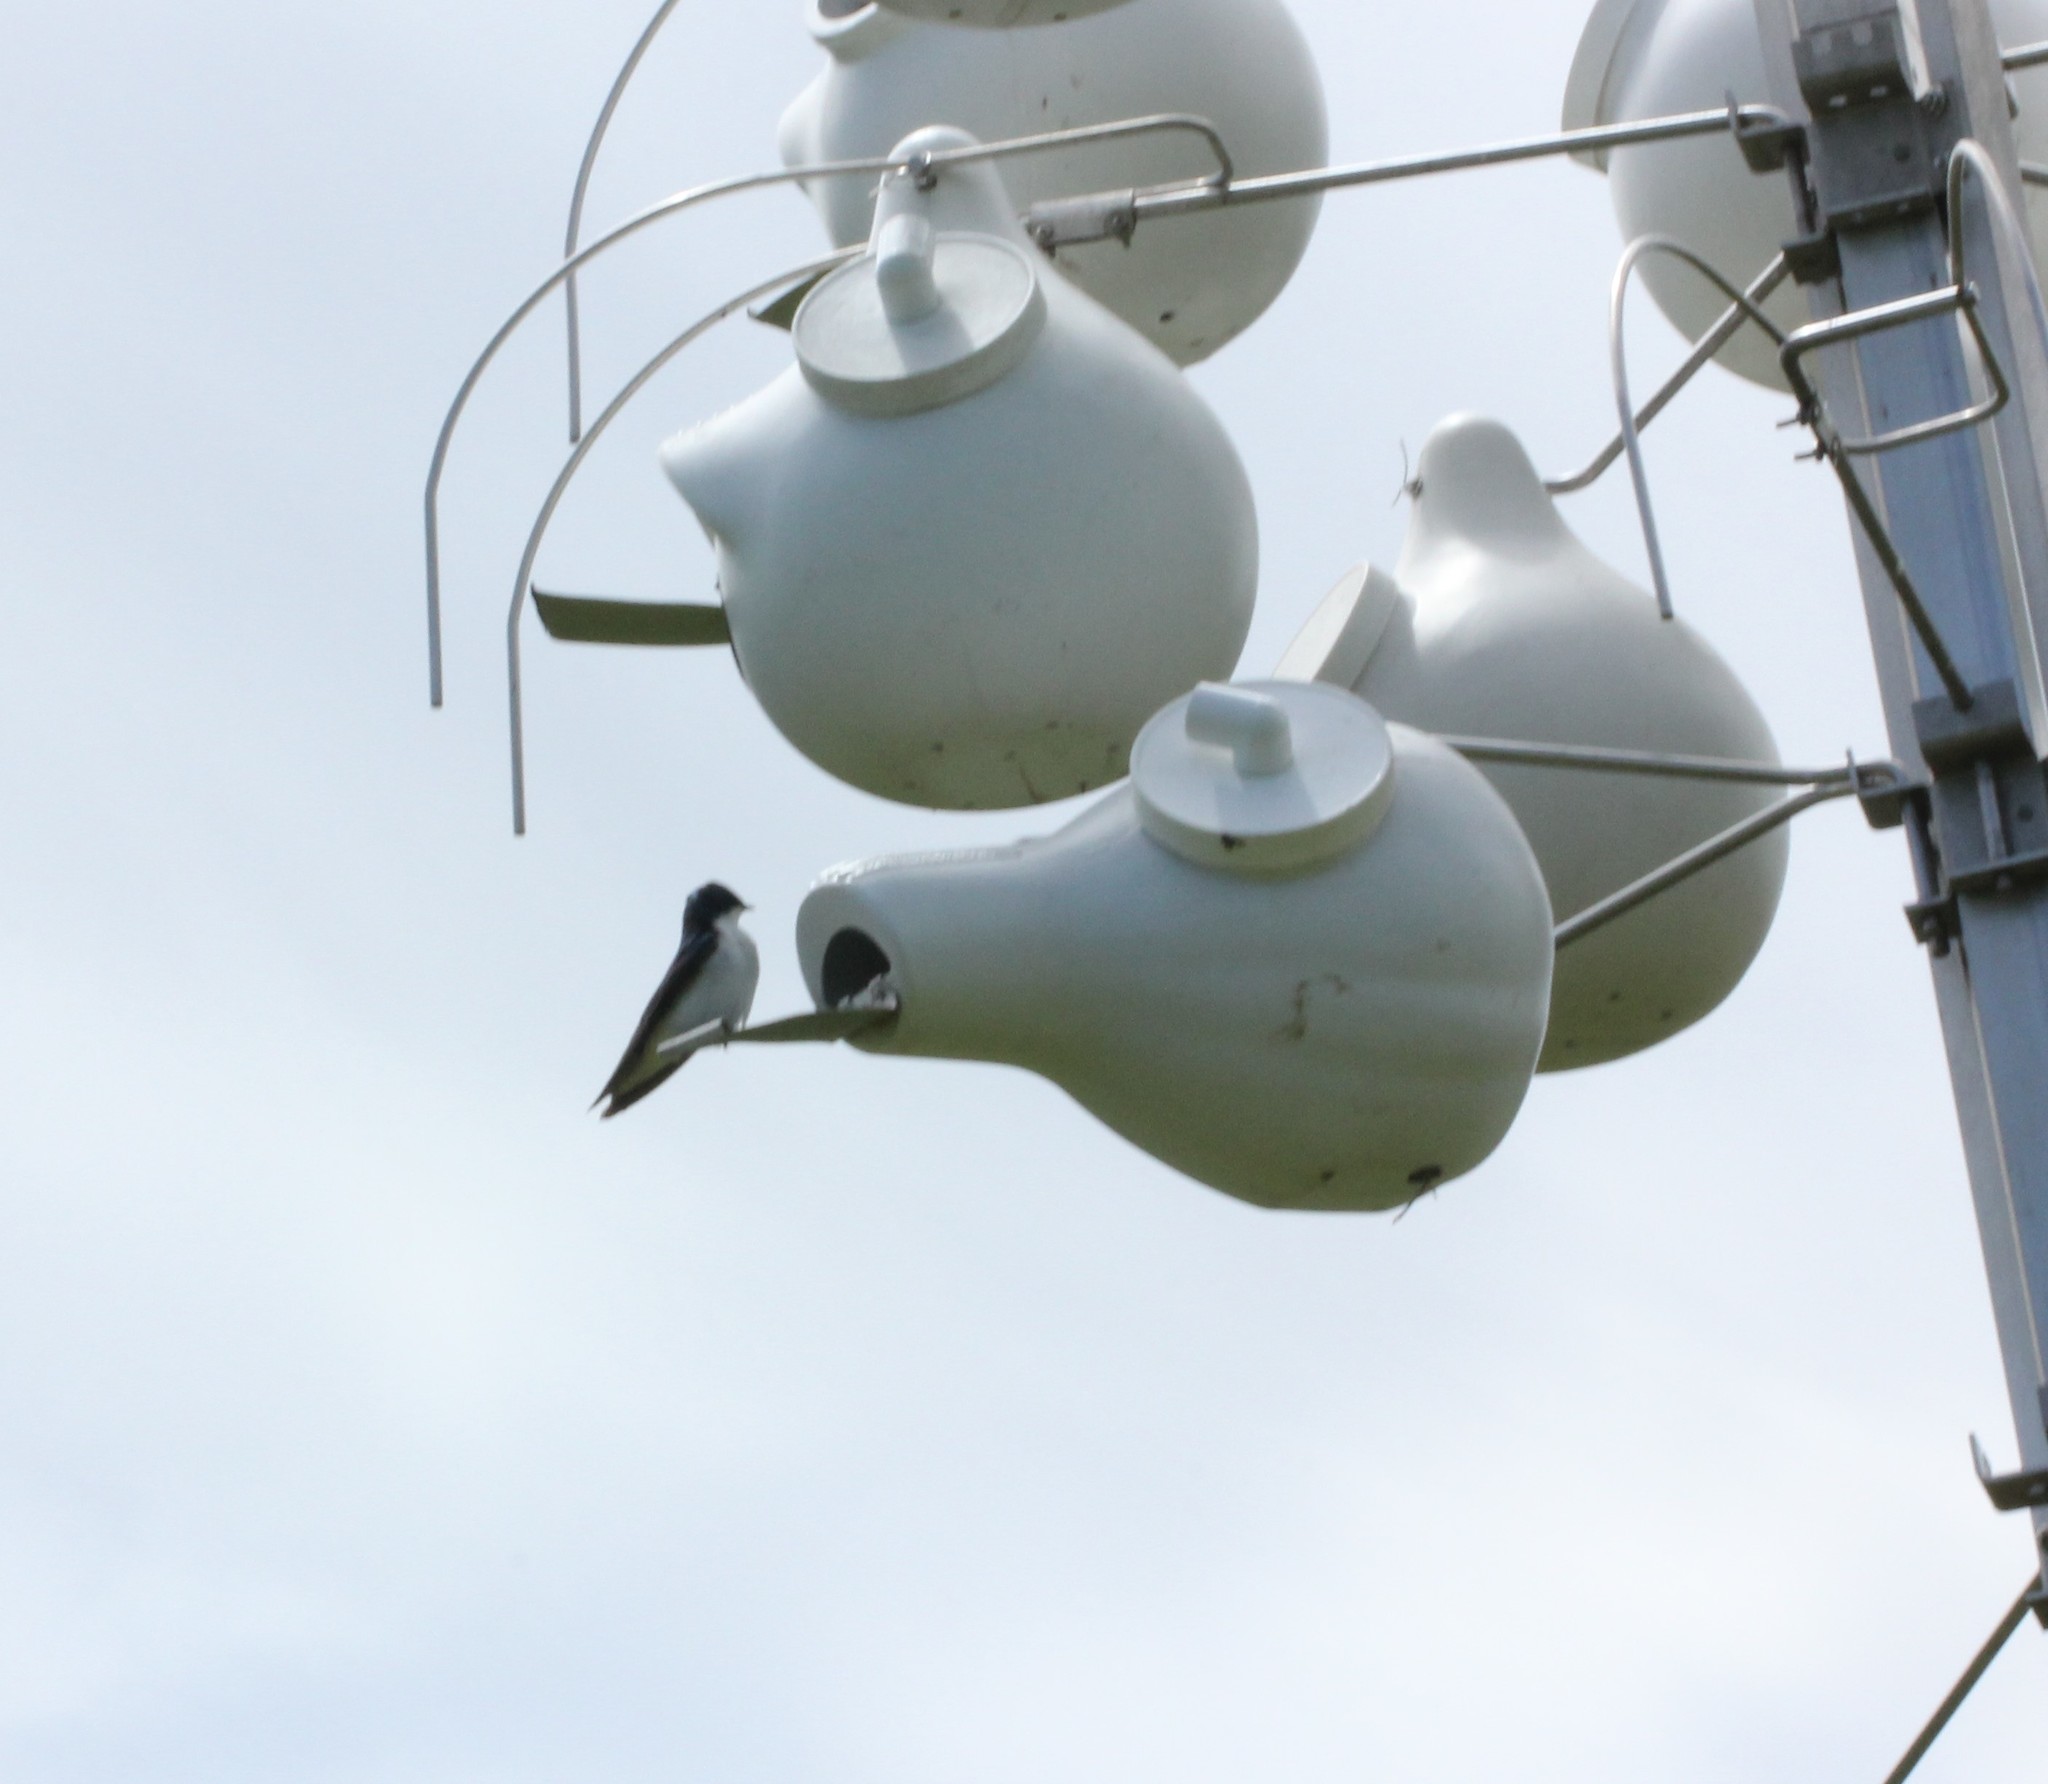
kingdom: Animalia
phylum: Chordata
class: Aves
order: Passeriformes
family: Hirundinidae
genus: Tachycineta
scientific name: Tachycineta bicolor
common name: Tree swallow
